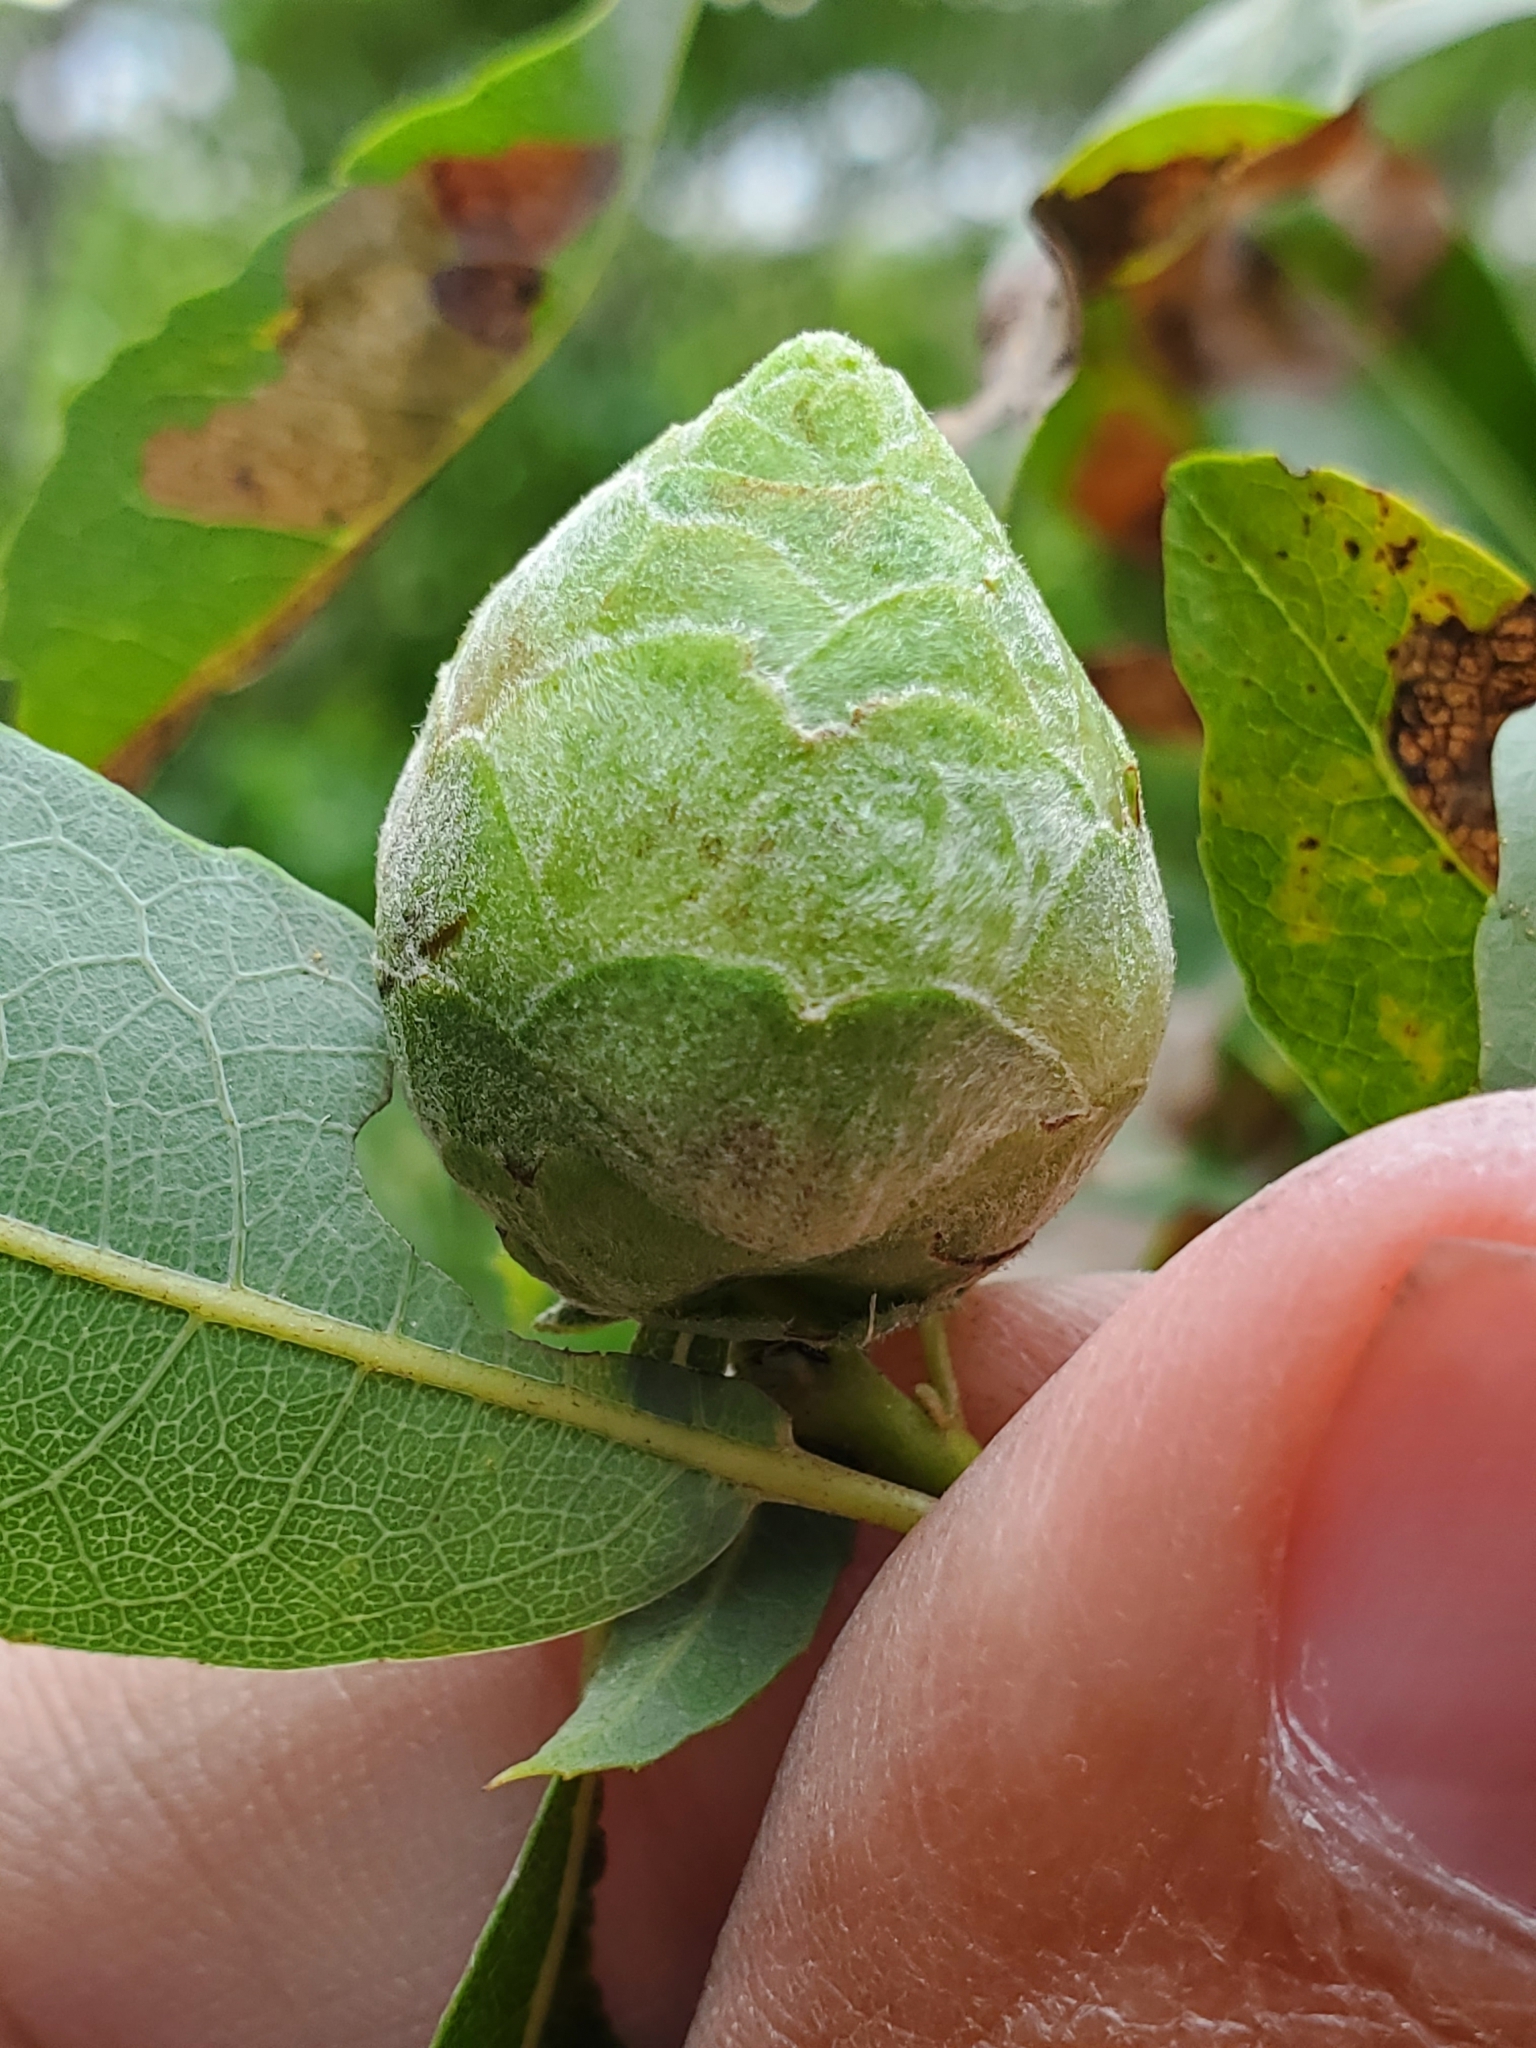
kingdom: Animalia
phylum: Arthropoda
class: Insecta
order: Diptera
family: Cecidomyiidae
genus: Rabdophaga
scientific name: Rabdophaga strobiloides
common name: Willow pinecone gall midge
